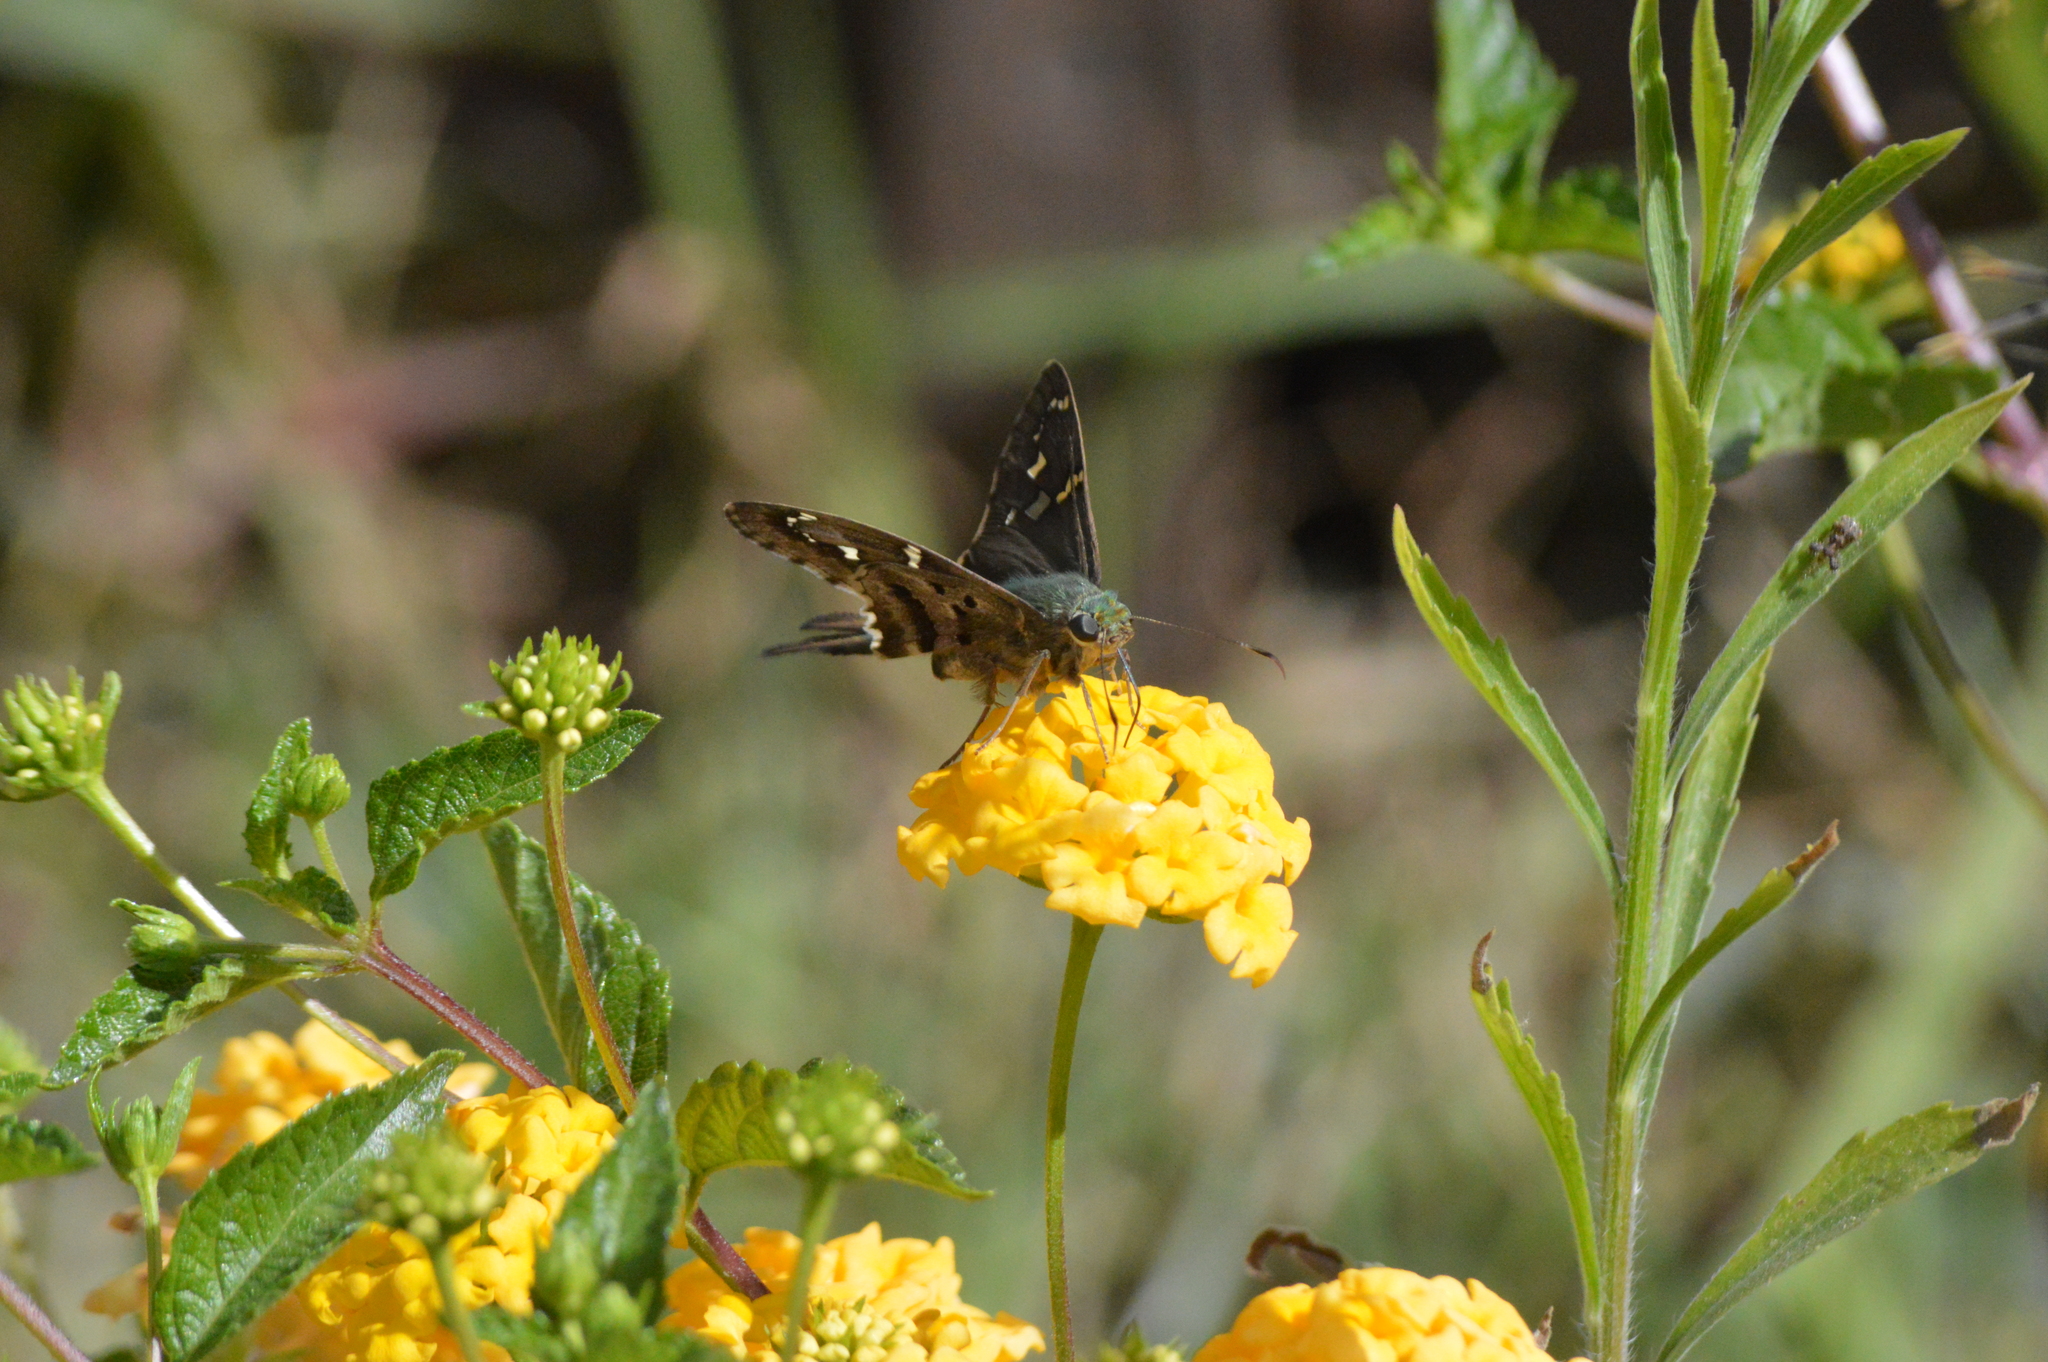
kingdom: Animalia
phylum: Arthropoda
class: Insecta
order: Lepidoptera
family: Hesperiidae
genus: Urbanus
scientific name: Urbanus proteus
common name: Long-tailed skipper
